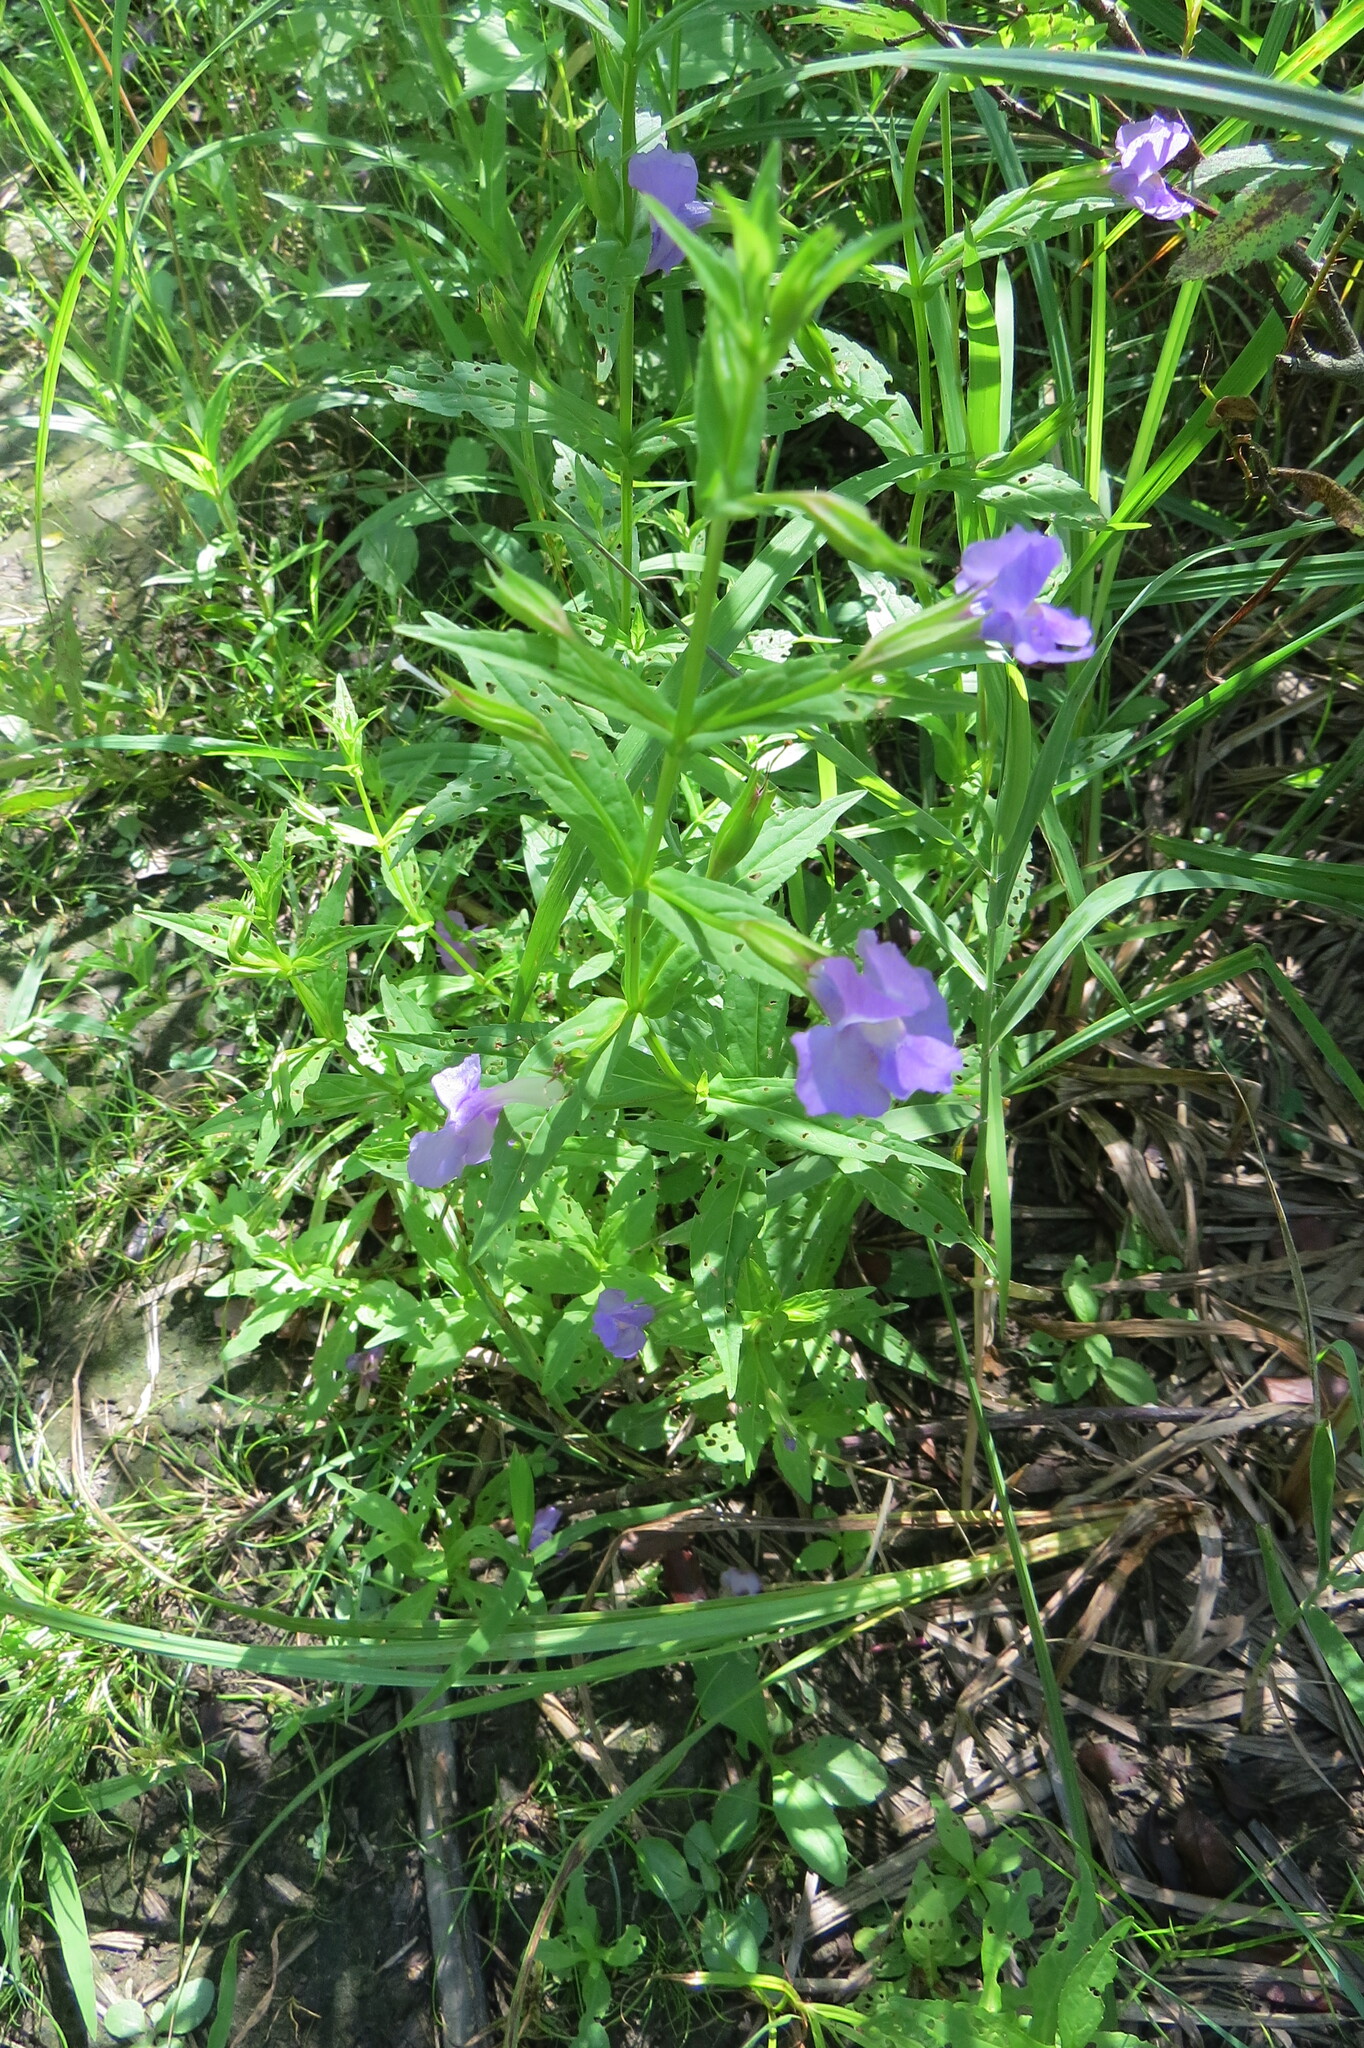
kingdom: Plantae
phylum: Tracheophyta
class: Magnoliopsida
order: Lamiales
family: Phrymaceae
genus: Mimulus
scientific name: Mimulus ringens
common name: Allegheny monkeyflower
